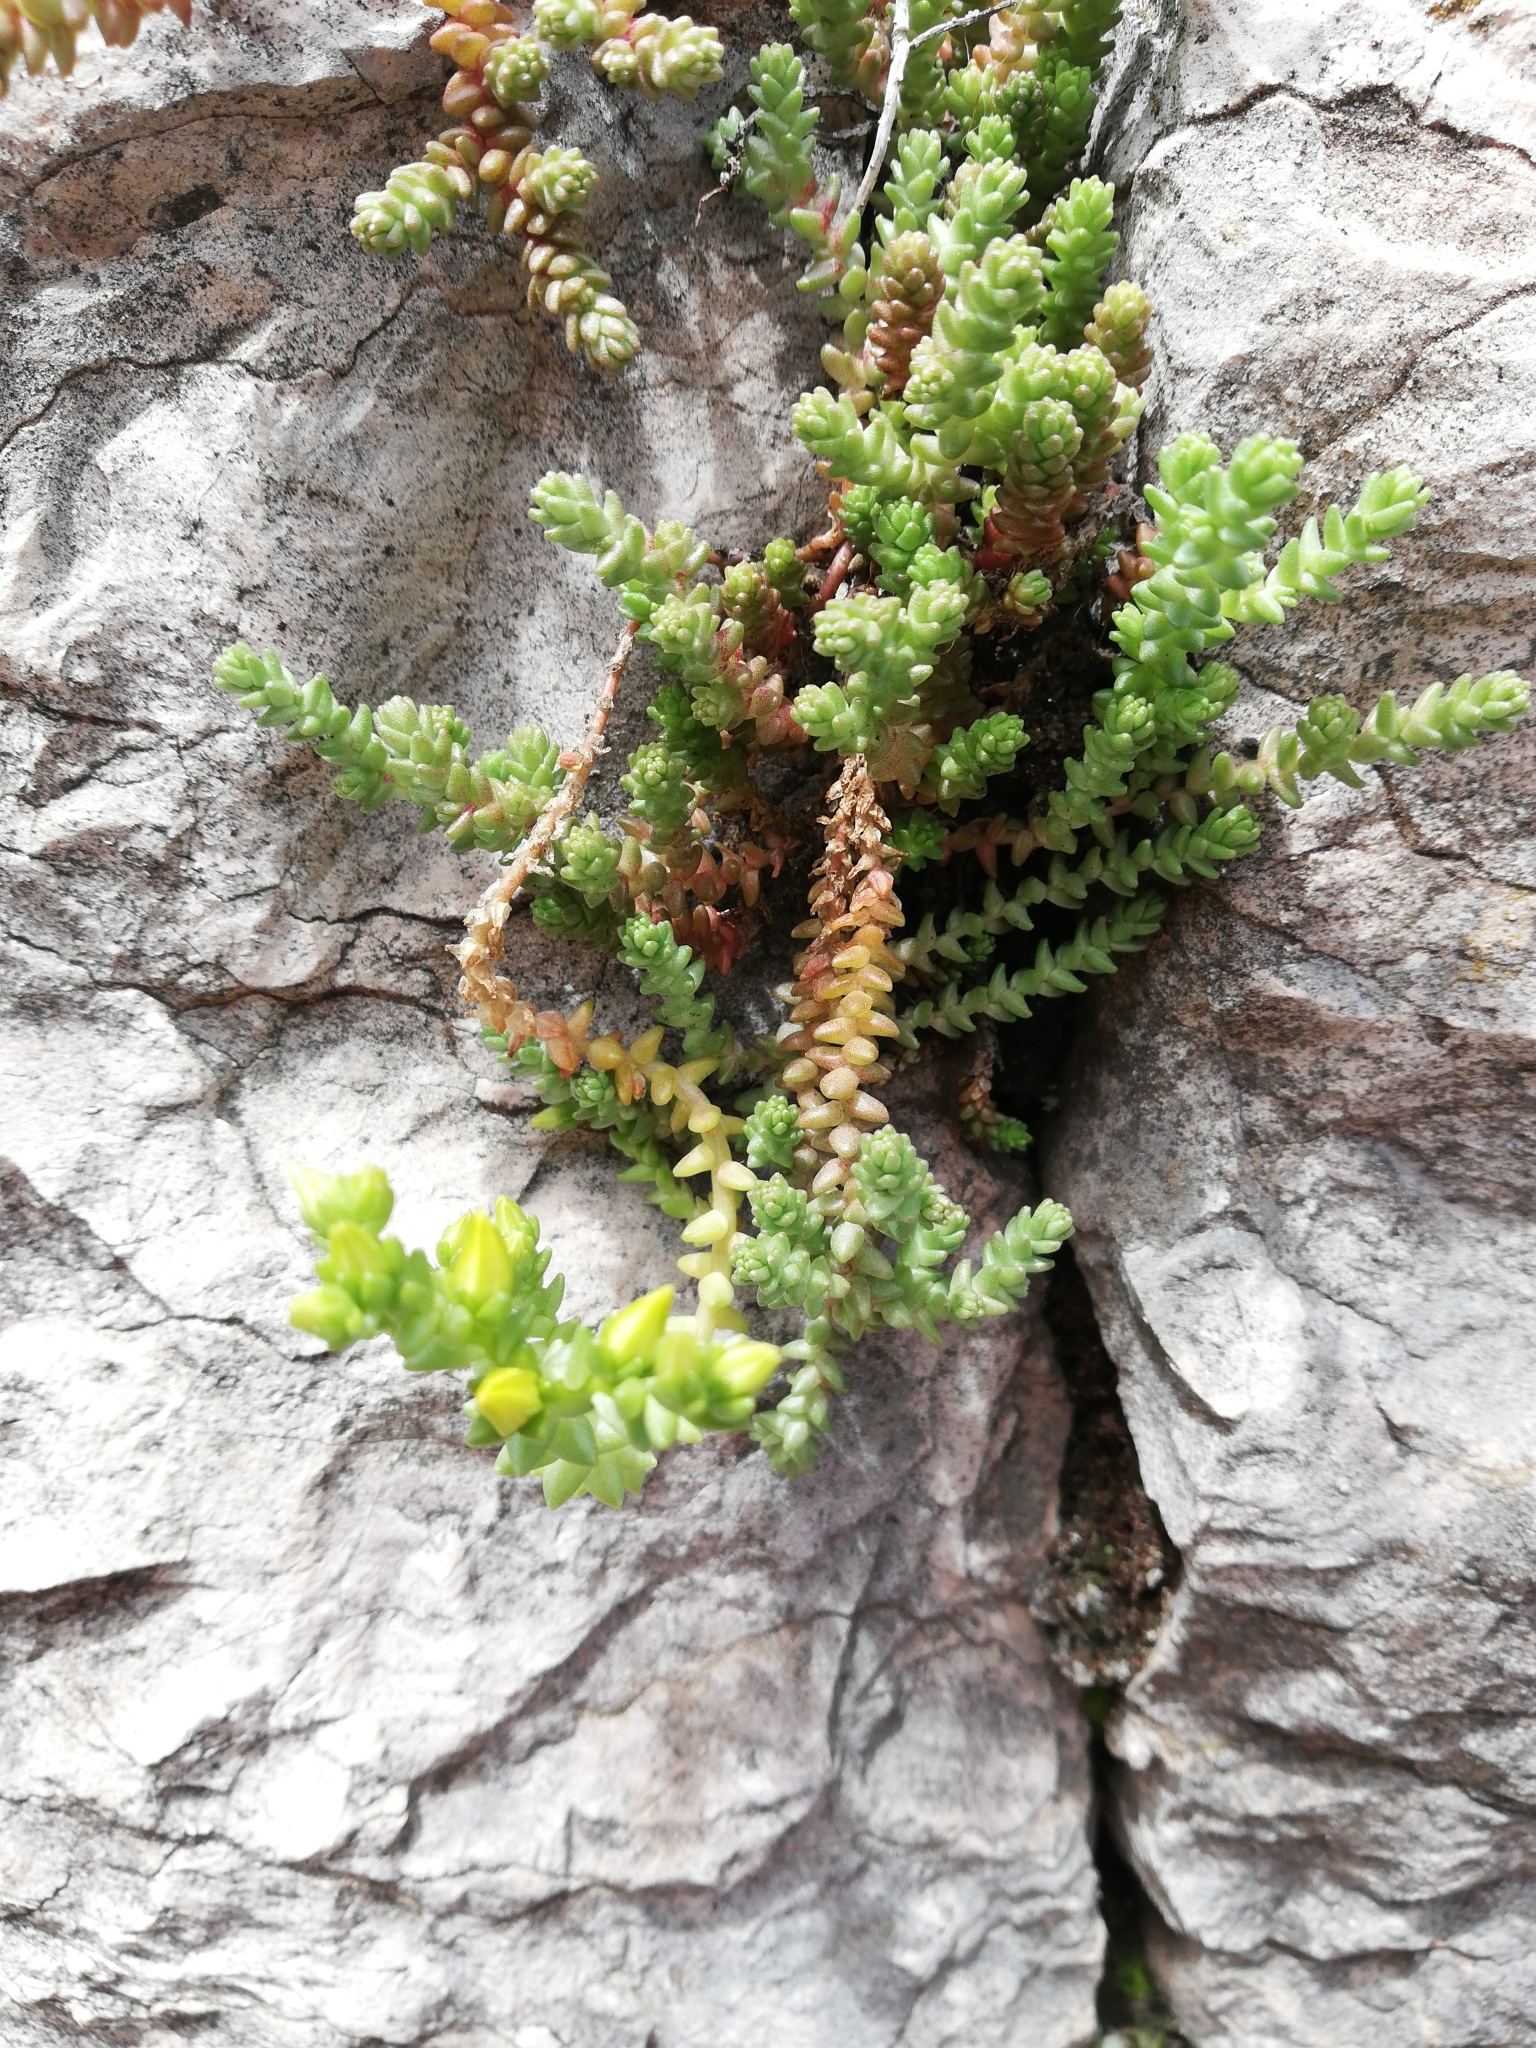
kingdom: Plantae
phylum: Tracheophyta
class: Magnoliopsida
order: Saxifragales
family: Crassulaceae
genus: Sedum
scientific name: Sedum acre
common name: Biting stonecrop
